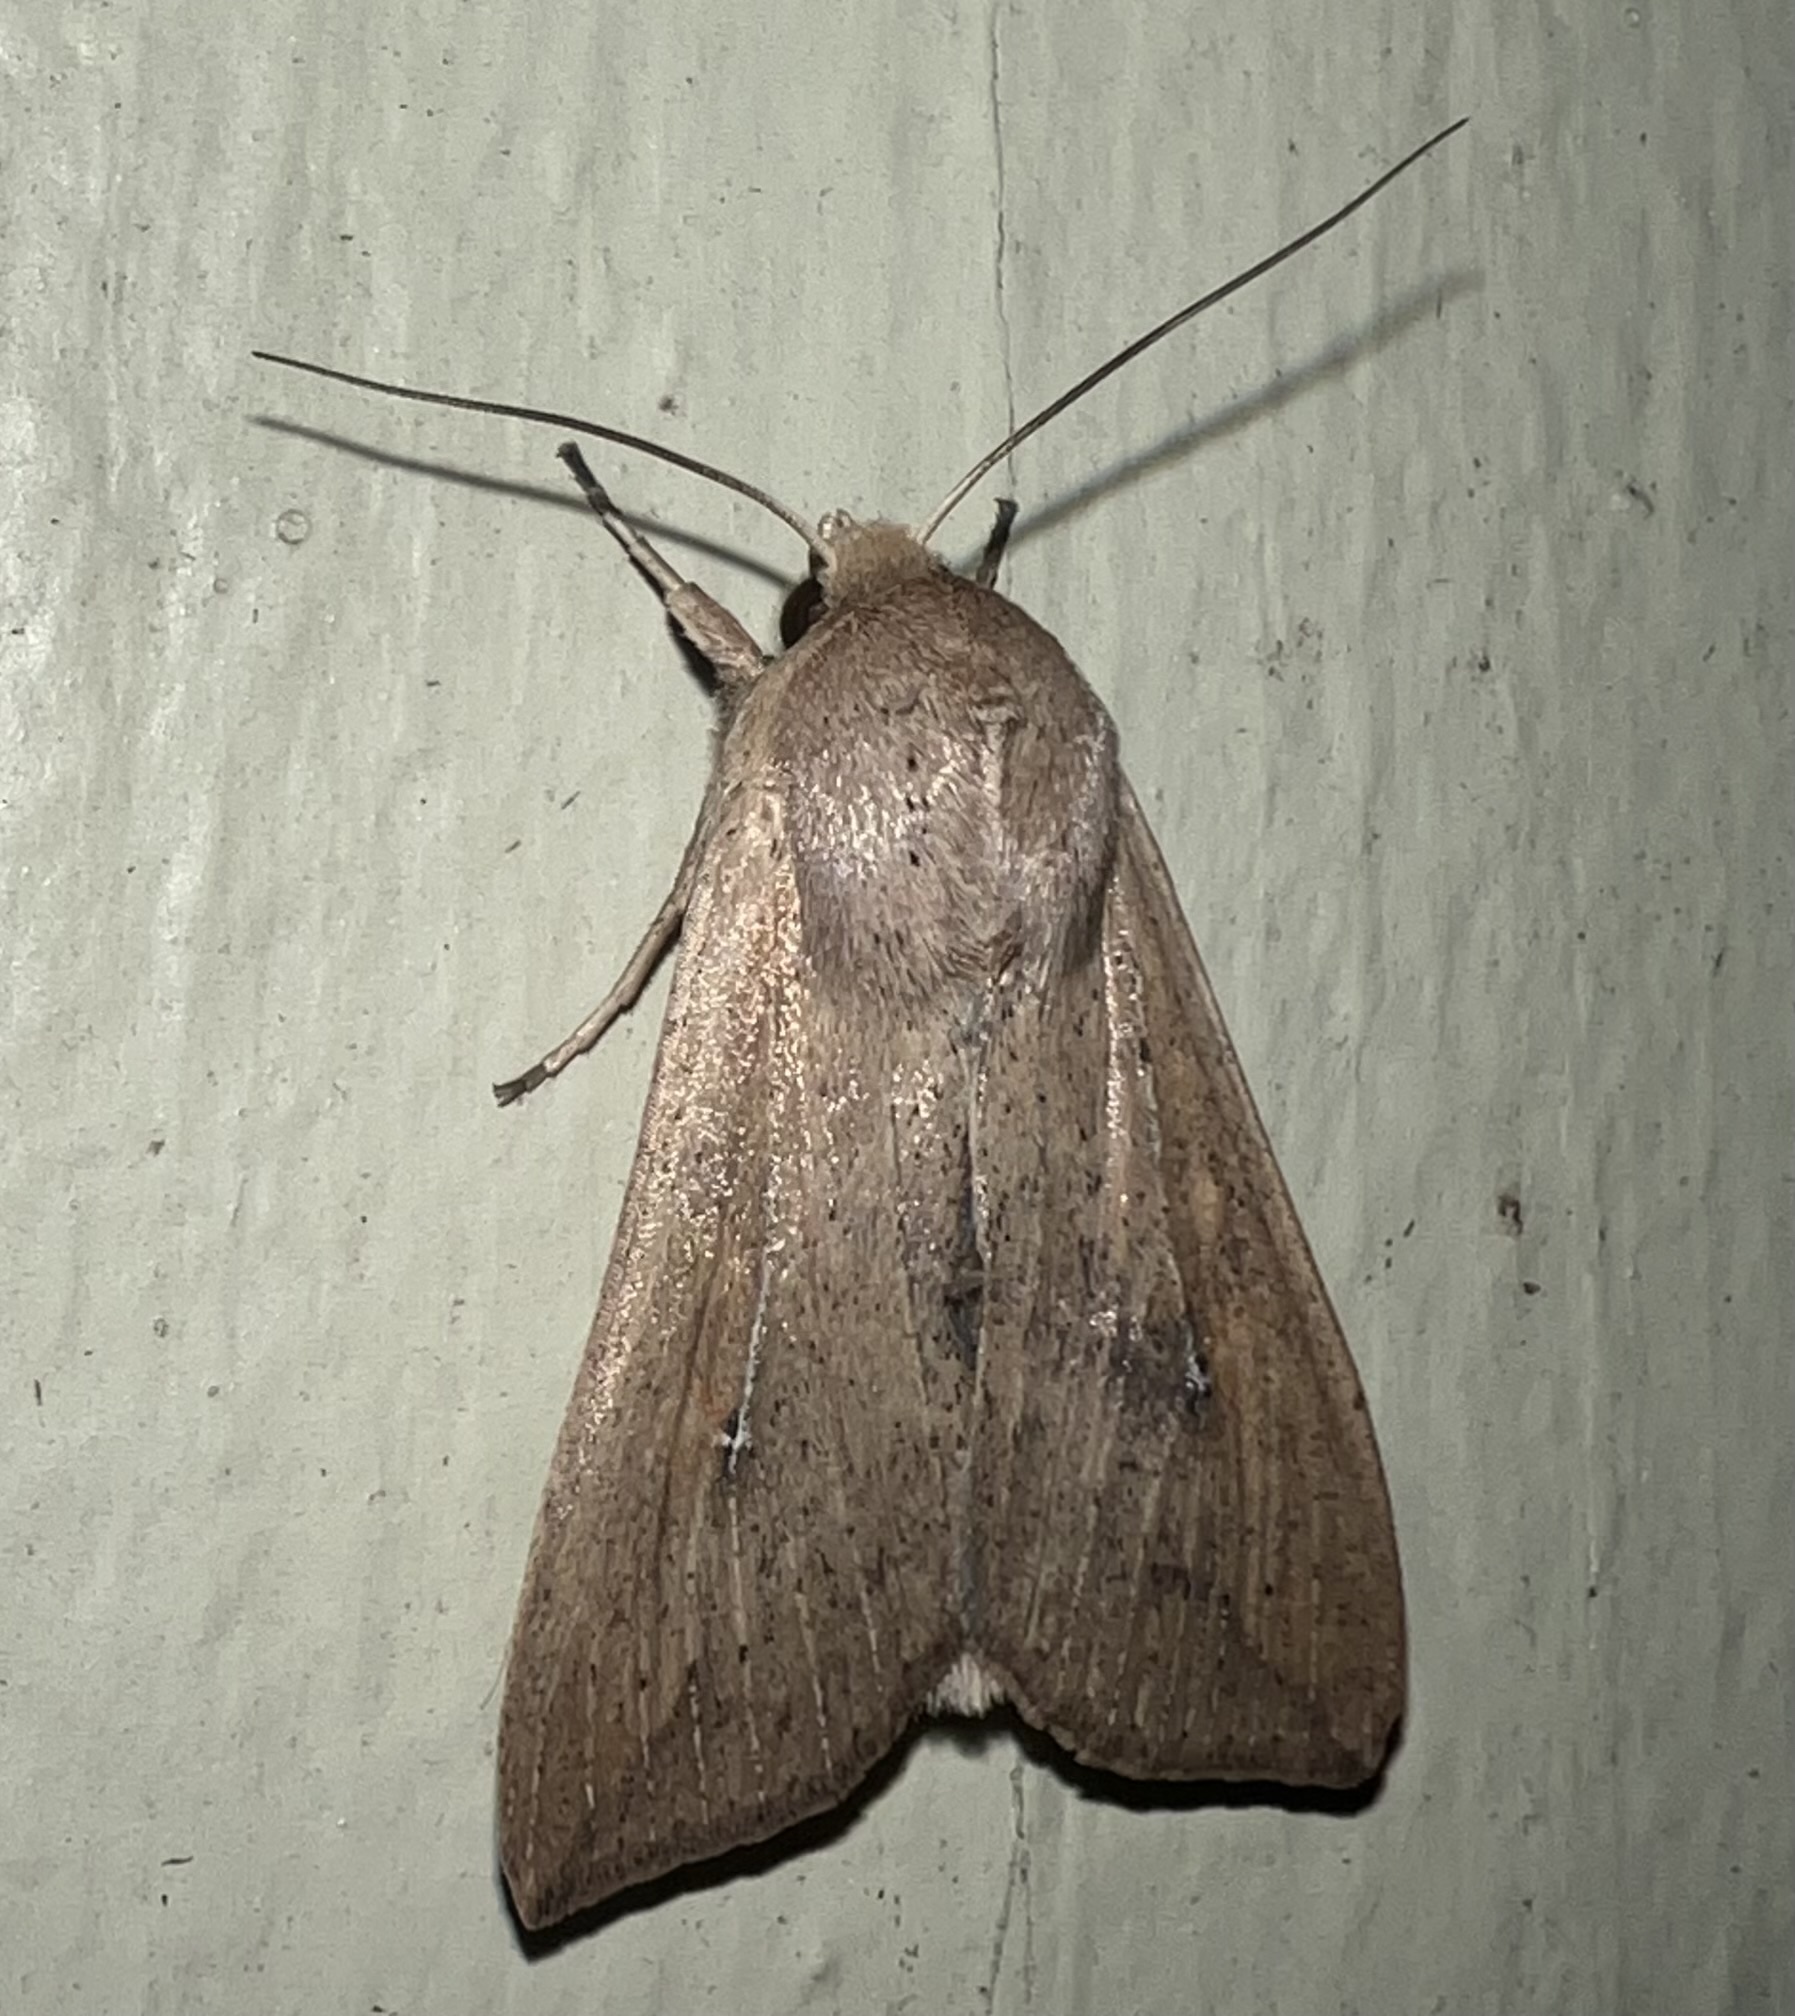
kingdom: Animalia
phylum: Arthropoda
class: Insecta
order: Lepidoptera
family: Noctuidae
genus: Mythimna
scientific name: Mythimna unipuncta
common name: White-speck
